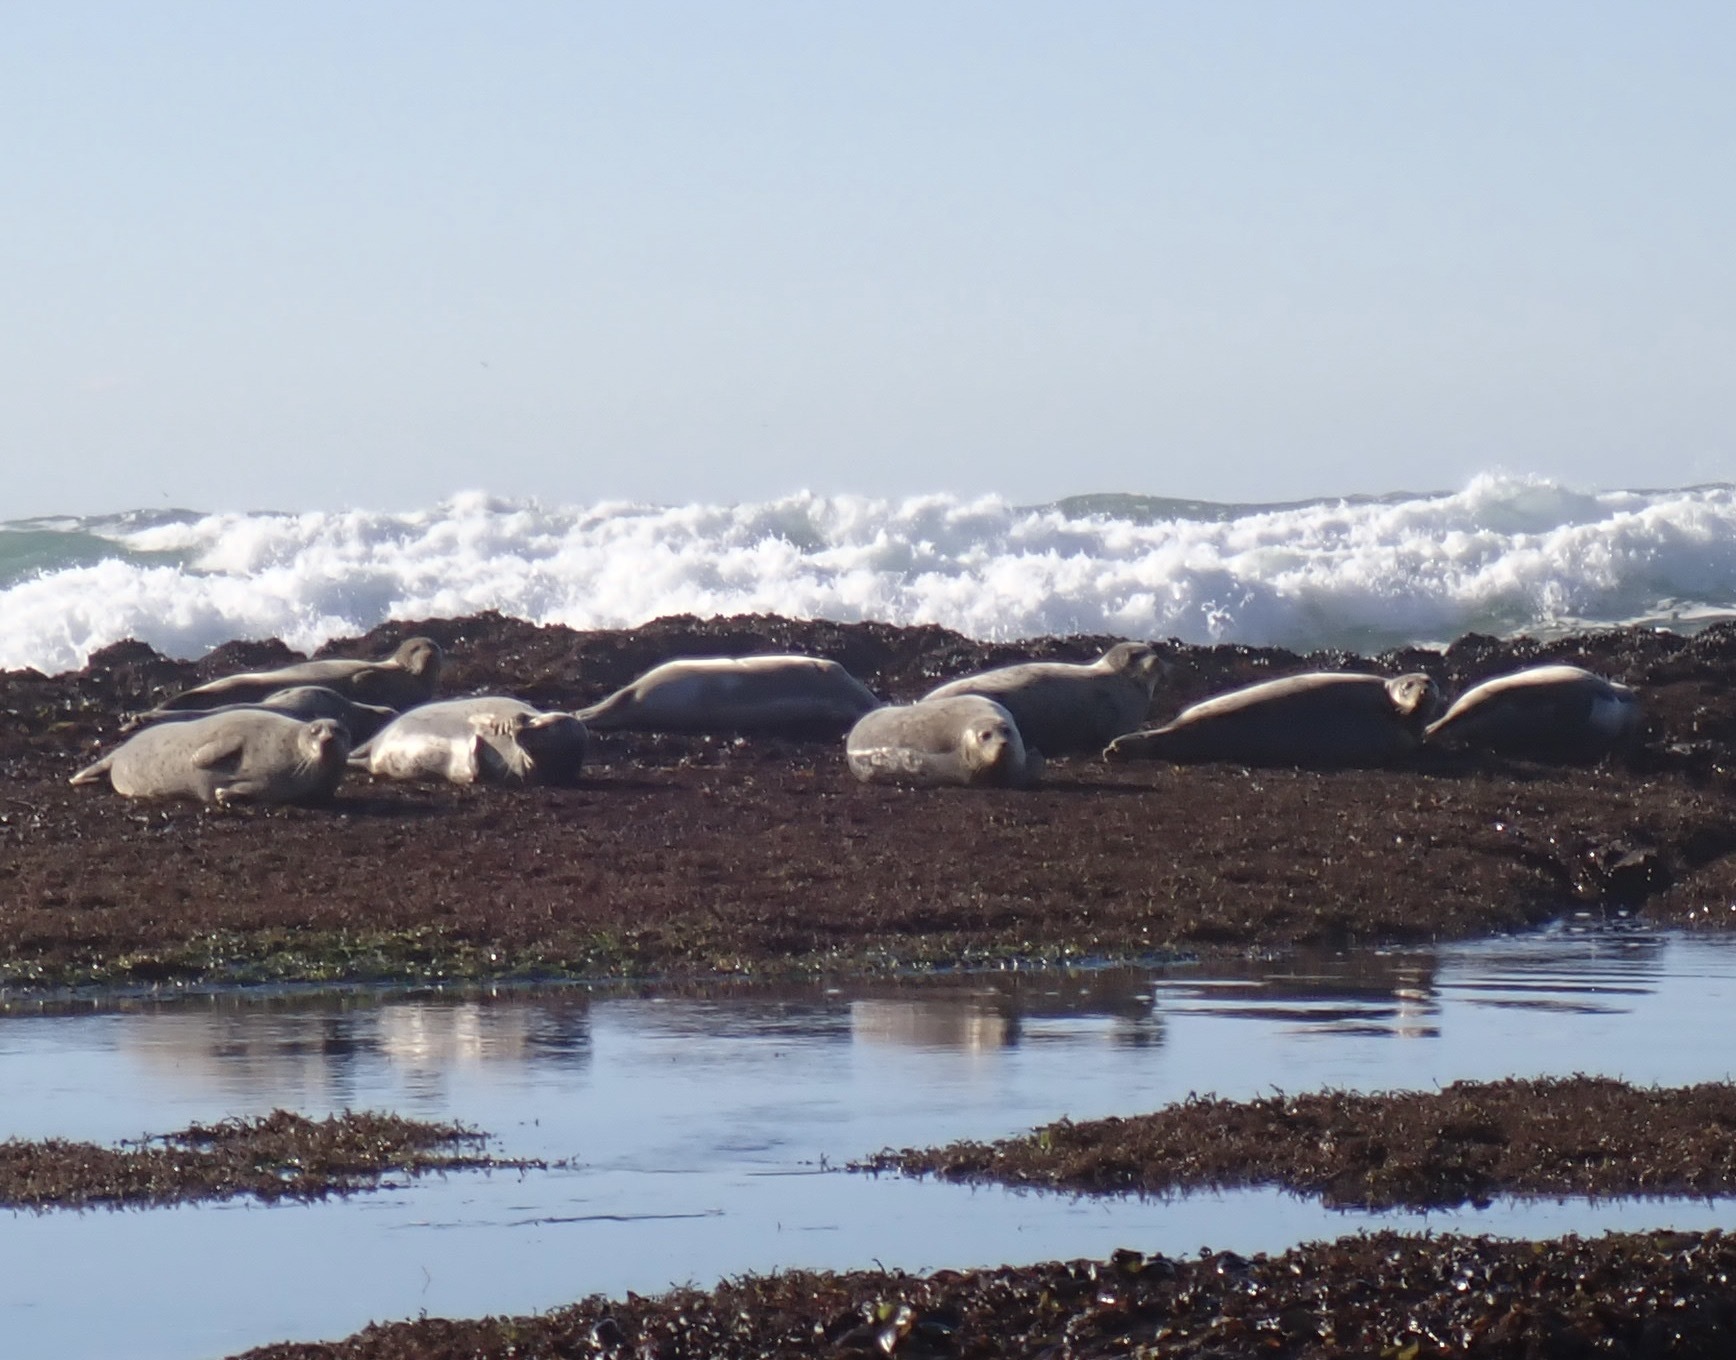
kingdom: Animalia
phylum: Chordata
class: Mammalia
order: Carnivora
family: Phocidae
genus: Phoca
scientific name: Phoca vitulina
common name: Harbor seal
